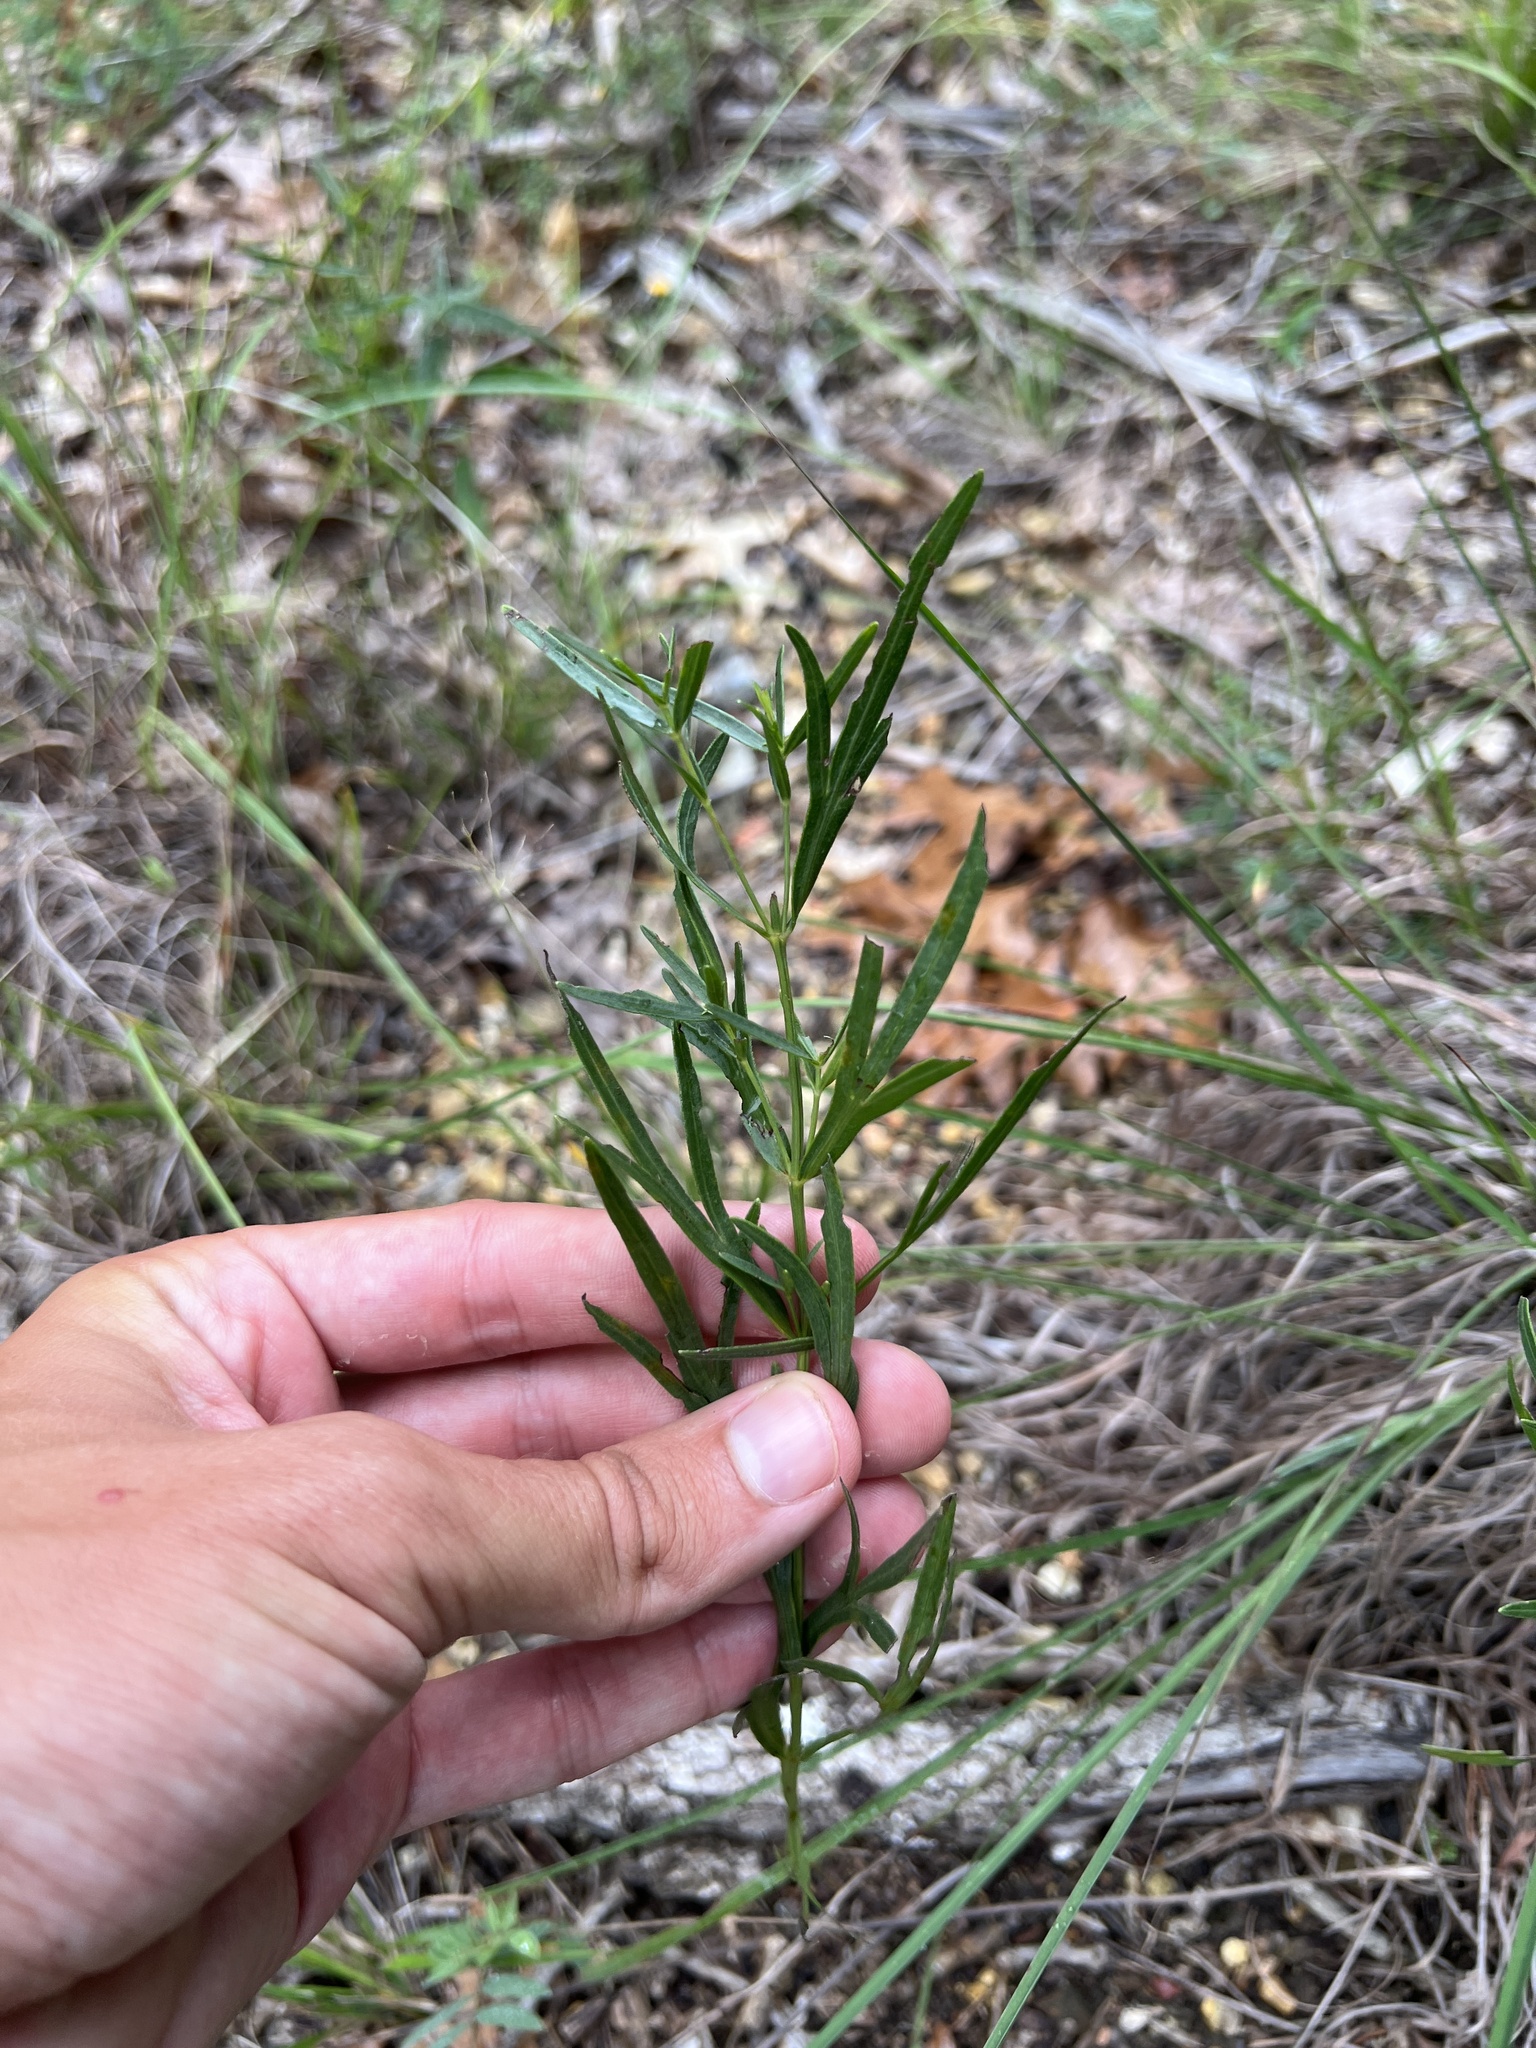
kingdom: Plantae
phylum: Tracheophyta
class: Magnoliopsida
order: Asterales
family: Asteraceae
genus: Coreopsis
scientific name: Coreopsis palmata
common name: Prairie coreopsis
